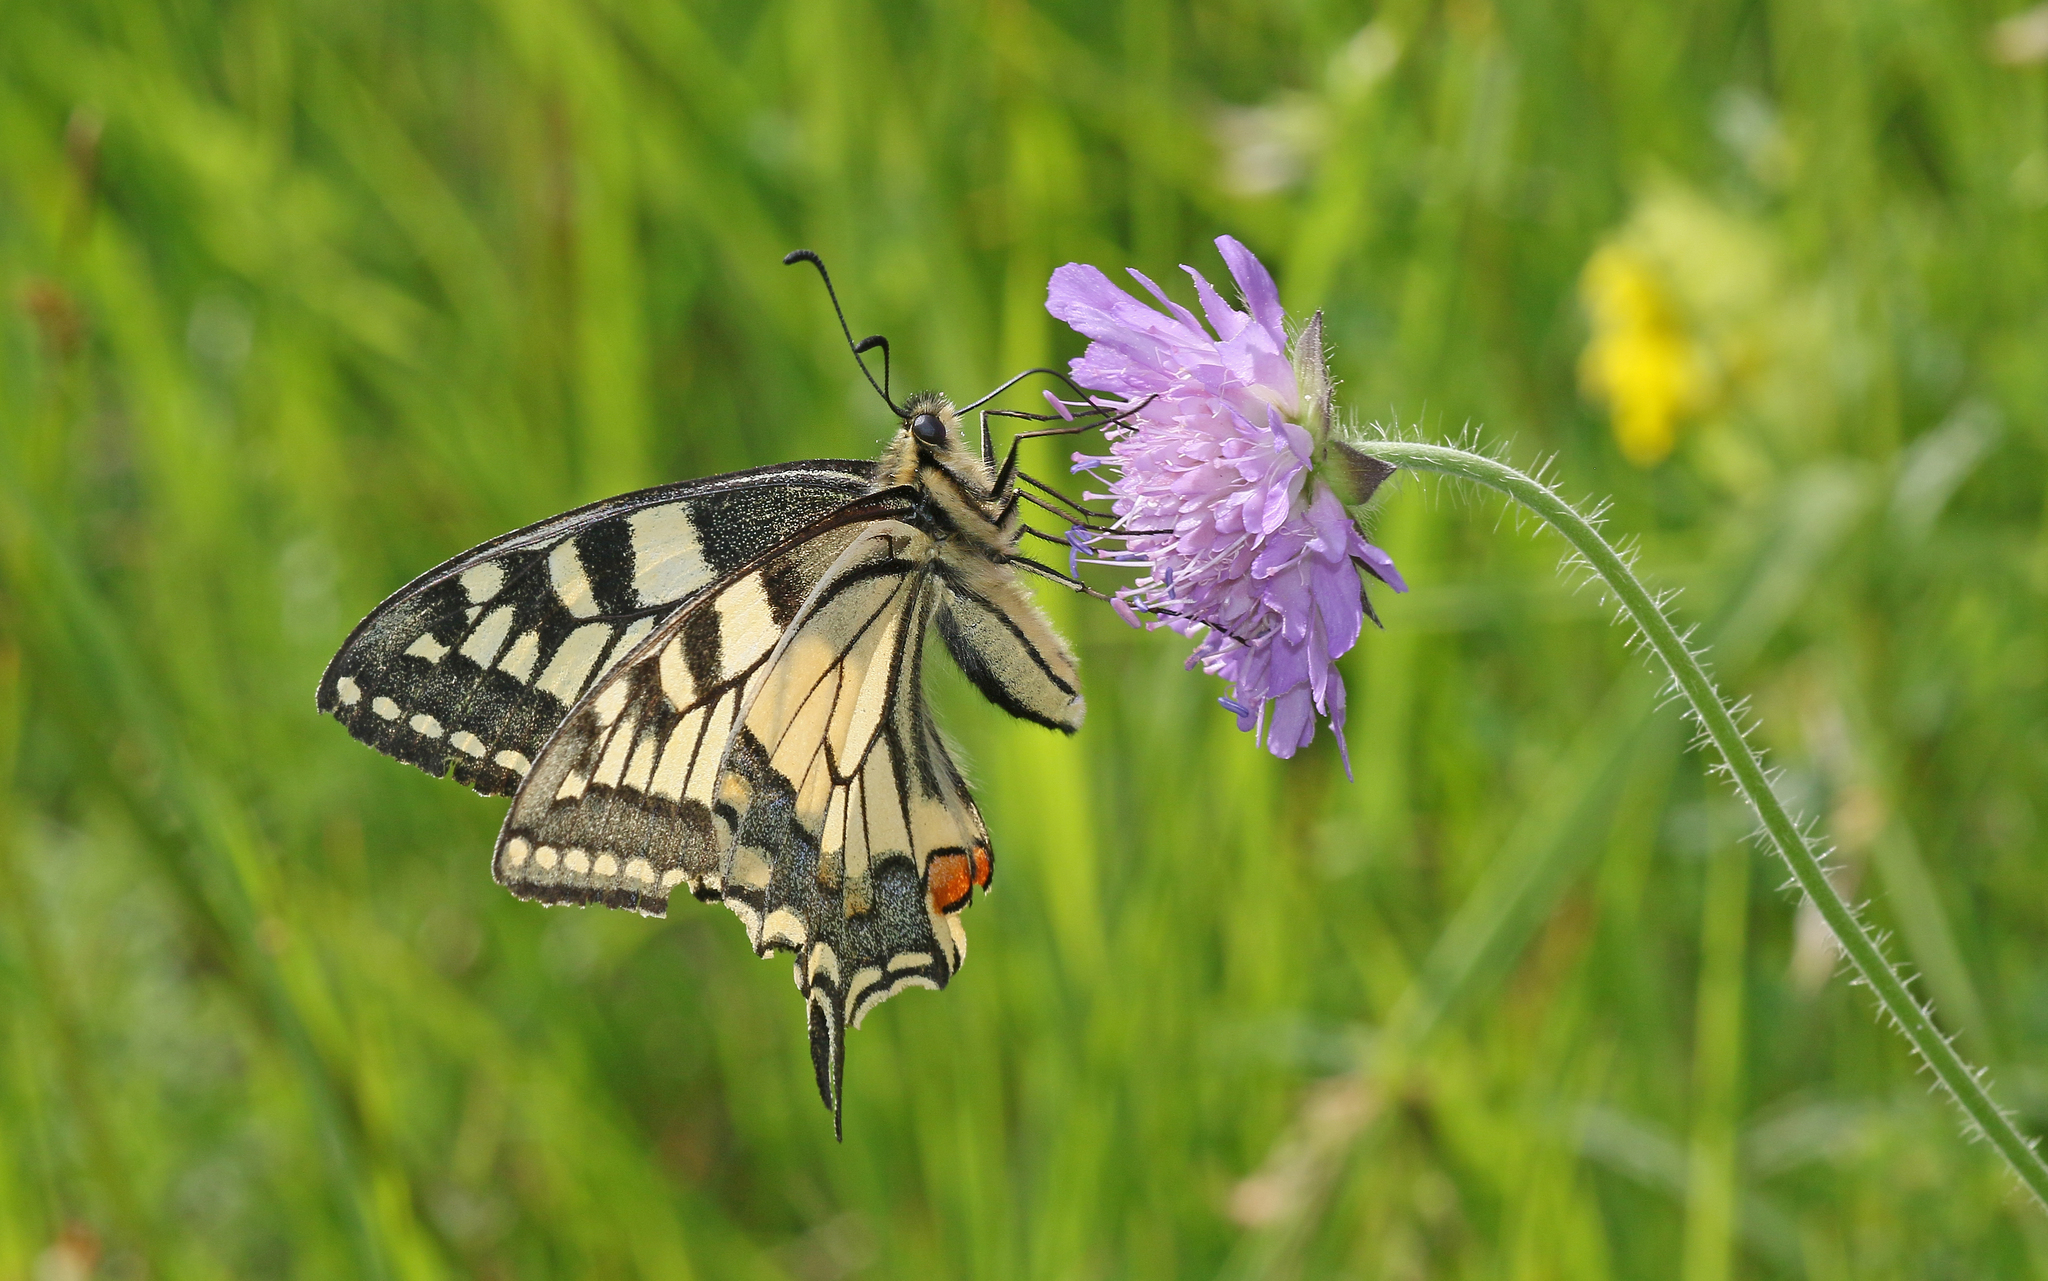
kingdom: Animalia
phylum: Arthropoda
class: Insecta
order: Lepidoptera
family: Papilionidae
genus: Papilio
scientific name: Papilio machaon
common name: Swallowtail
